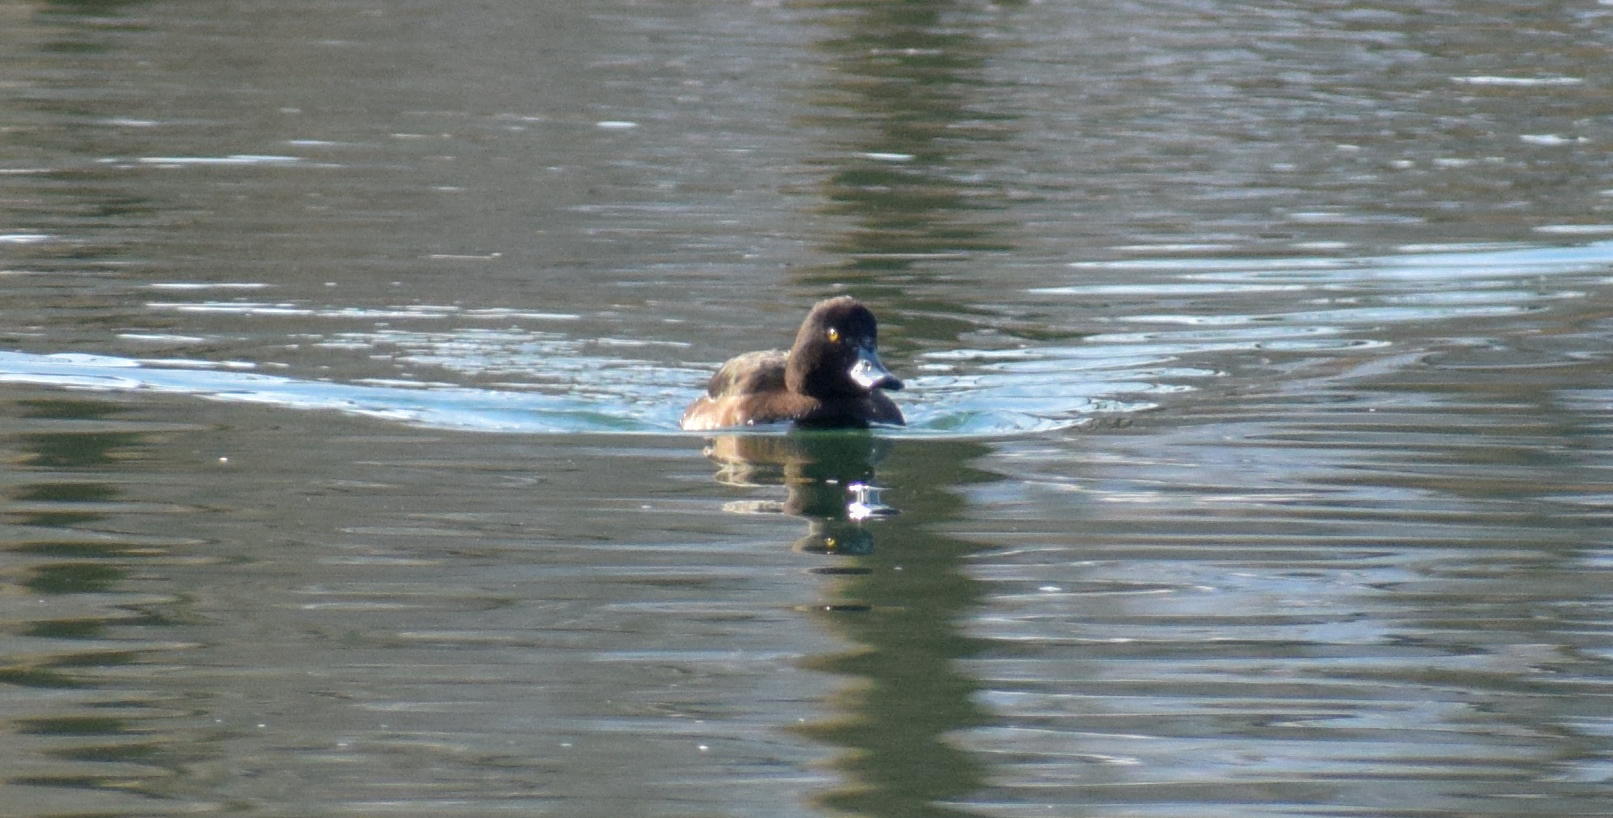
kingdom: Animalia
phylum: Chordata
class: Aves
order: Anseriformes
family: Anatidae
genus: Aythya
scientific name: Aythya fuligula
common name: Tufted duck
